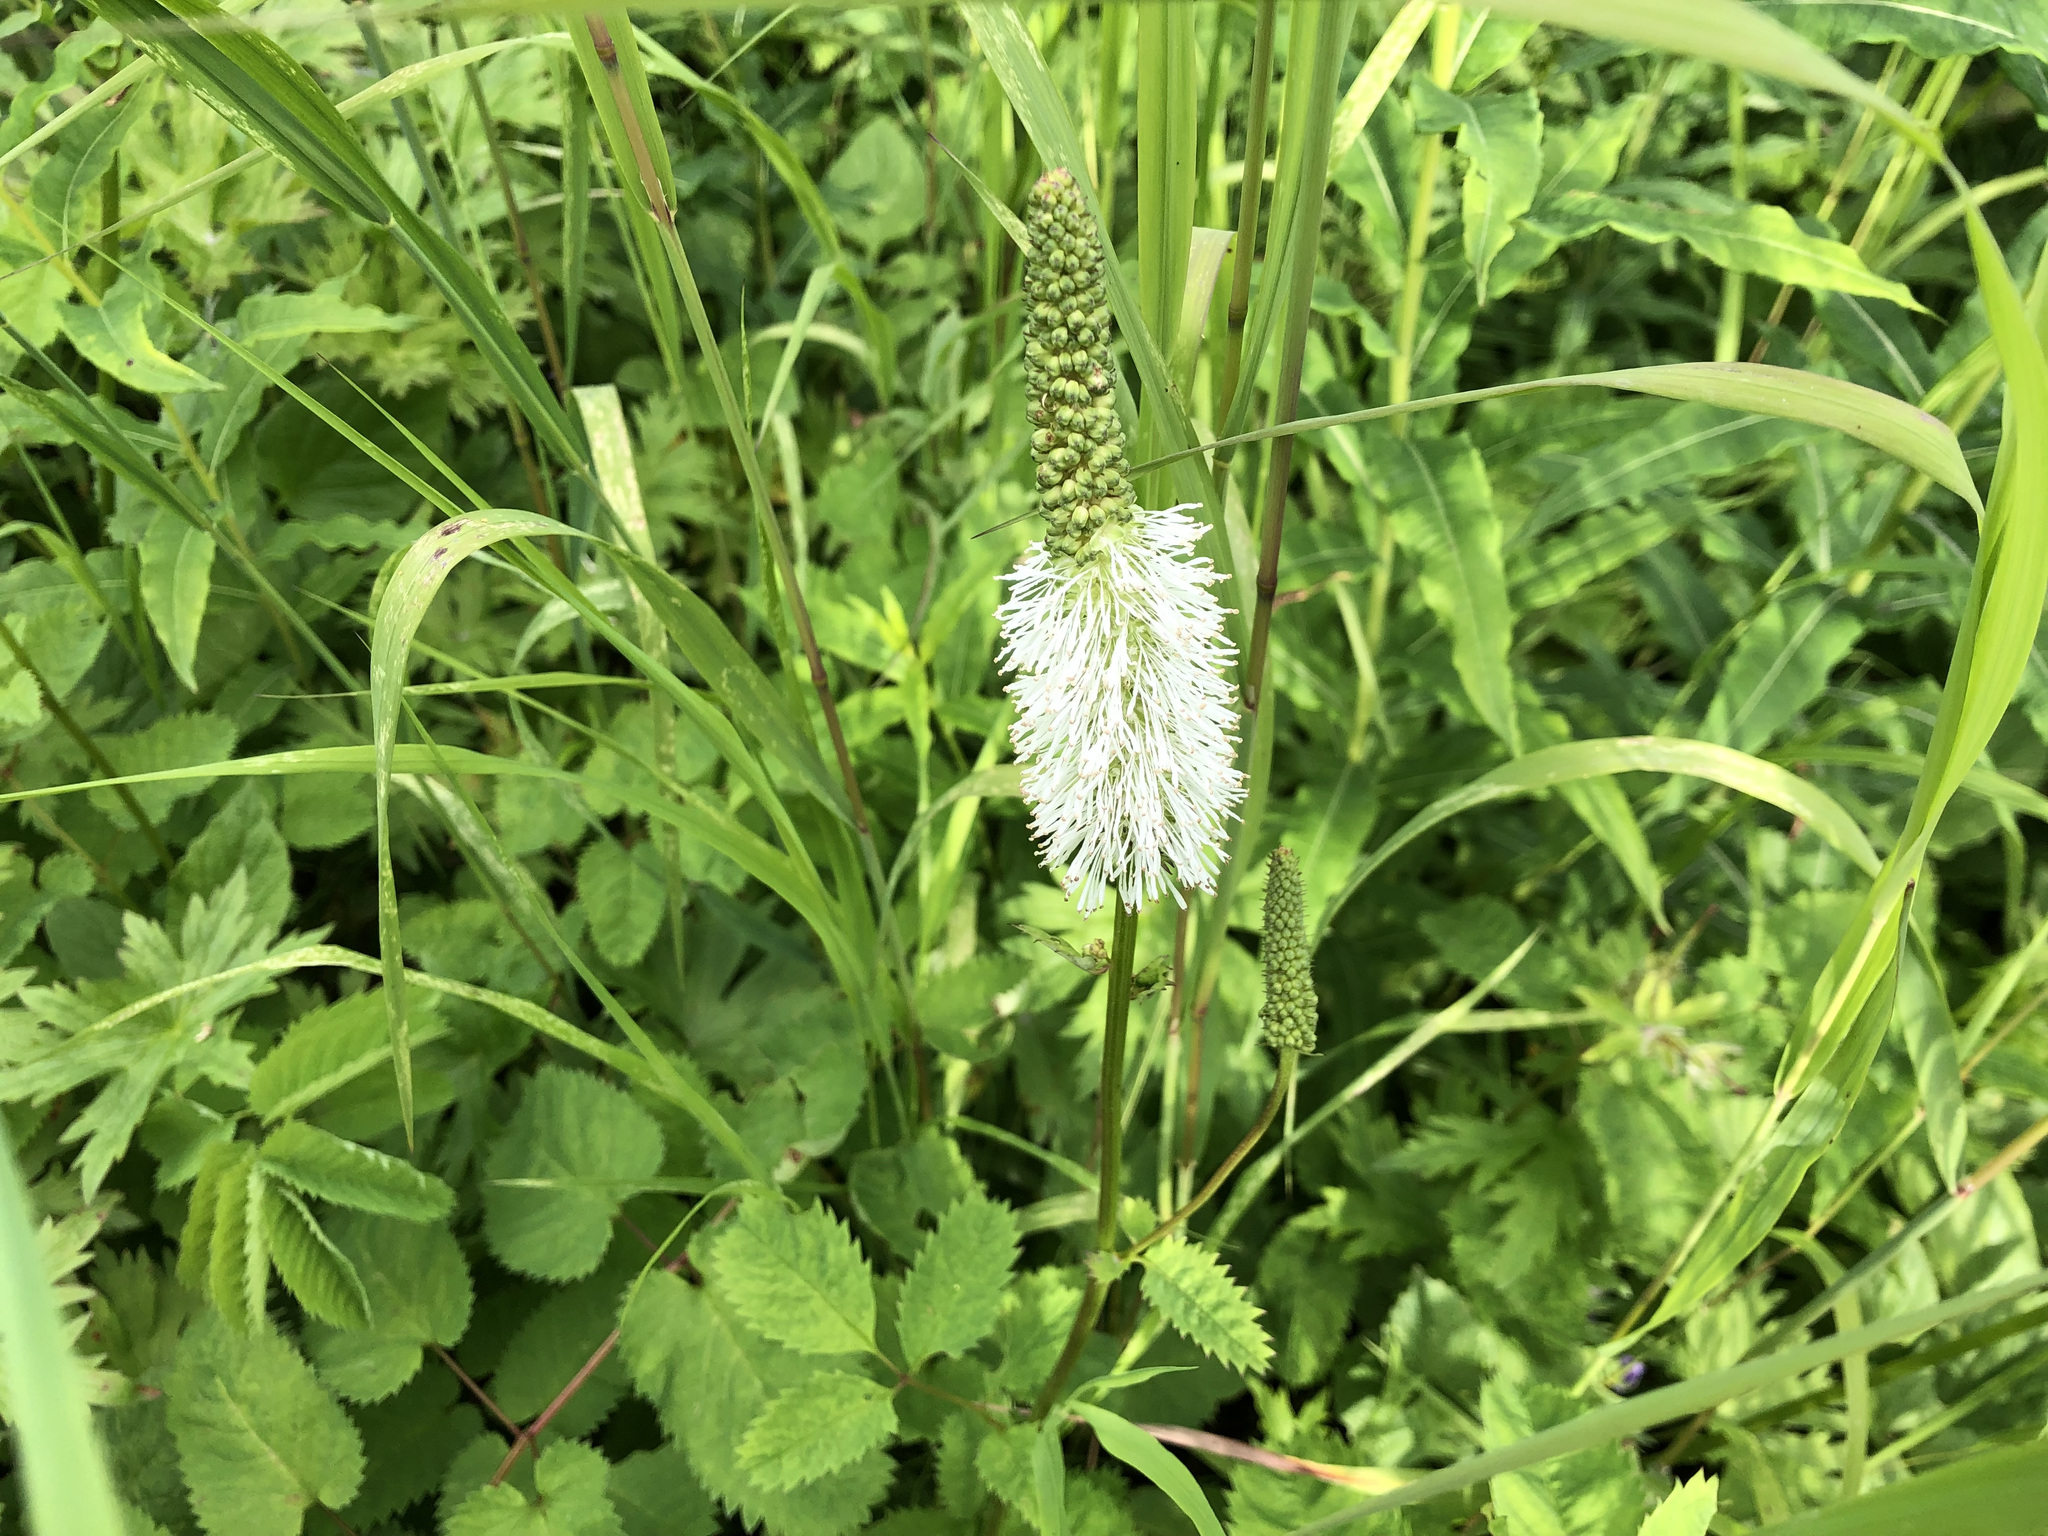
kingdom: Plantae
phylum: Tracheophyta
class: Magnoliopsida
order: Rosales
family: Rosaceae
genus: Sanguisorba
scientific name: Sanguisorba stipulata
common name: Sitka burnet
